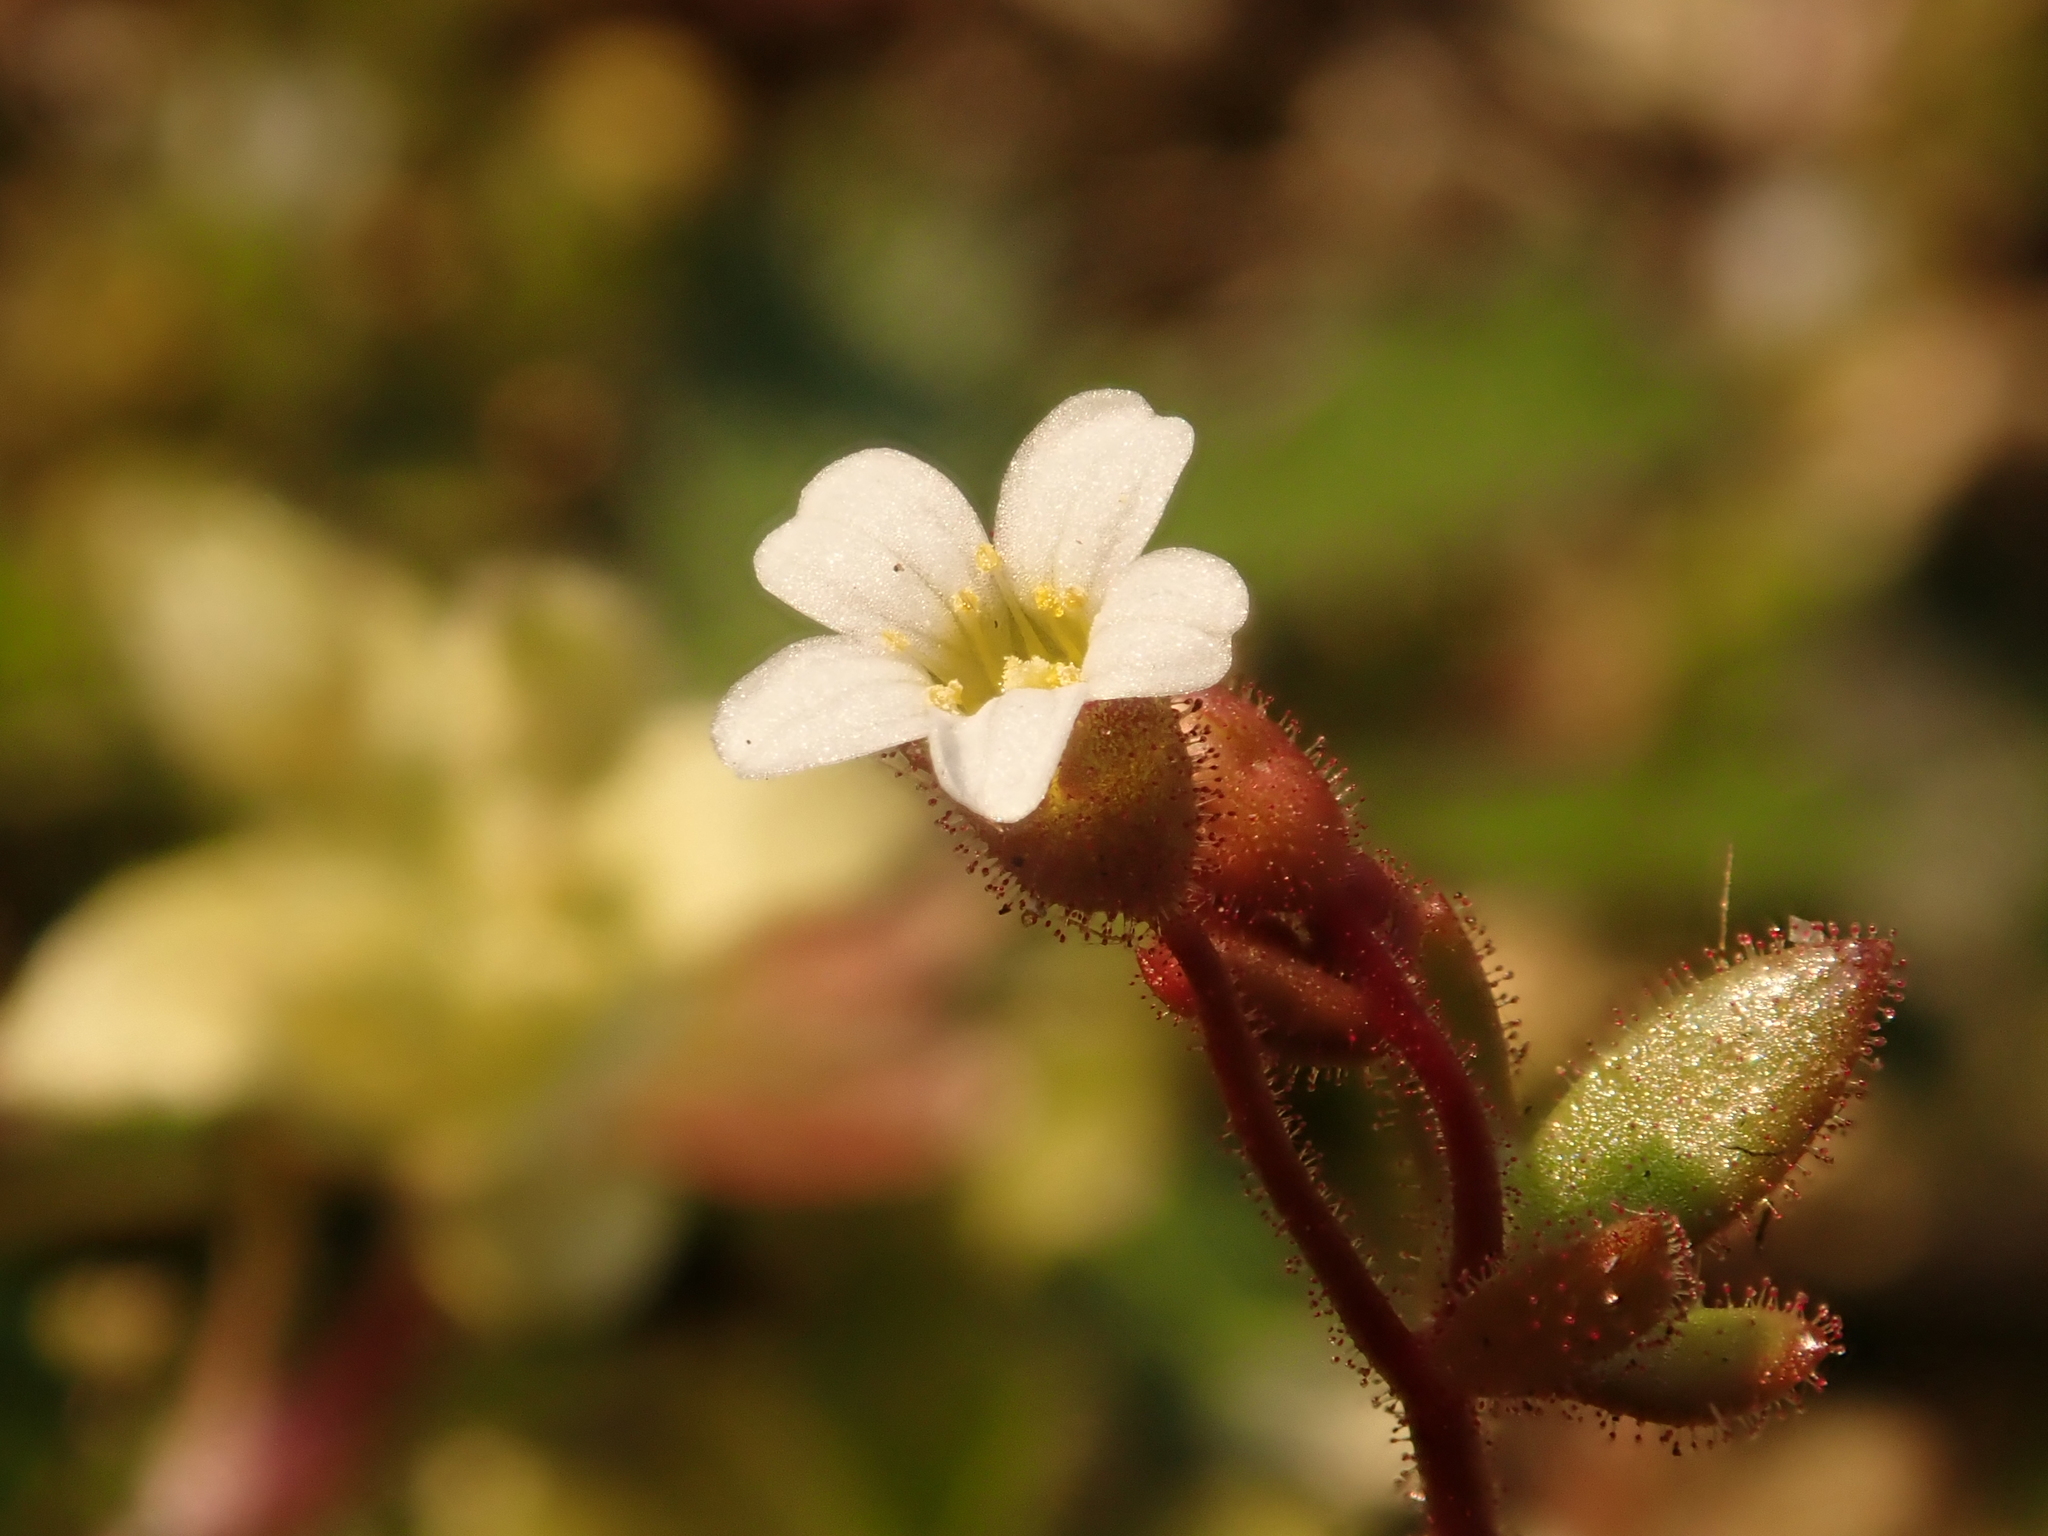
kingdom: Plantae
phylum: Tracheophyta
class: Magnoliopsida
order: Saxifragales
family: Saxifragaceae
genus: Saxifraga
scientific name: Saxifraga tridactylites
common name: Rue-leaved saxifrage
